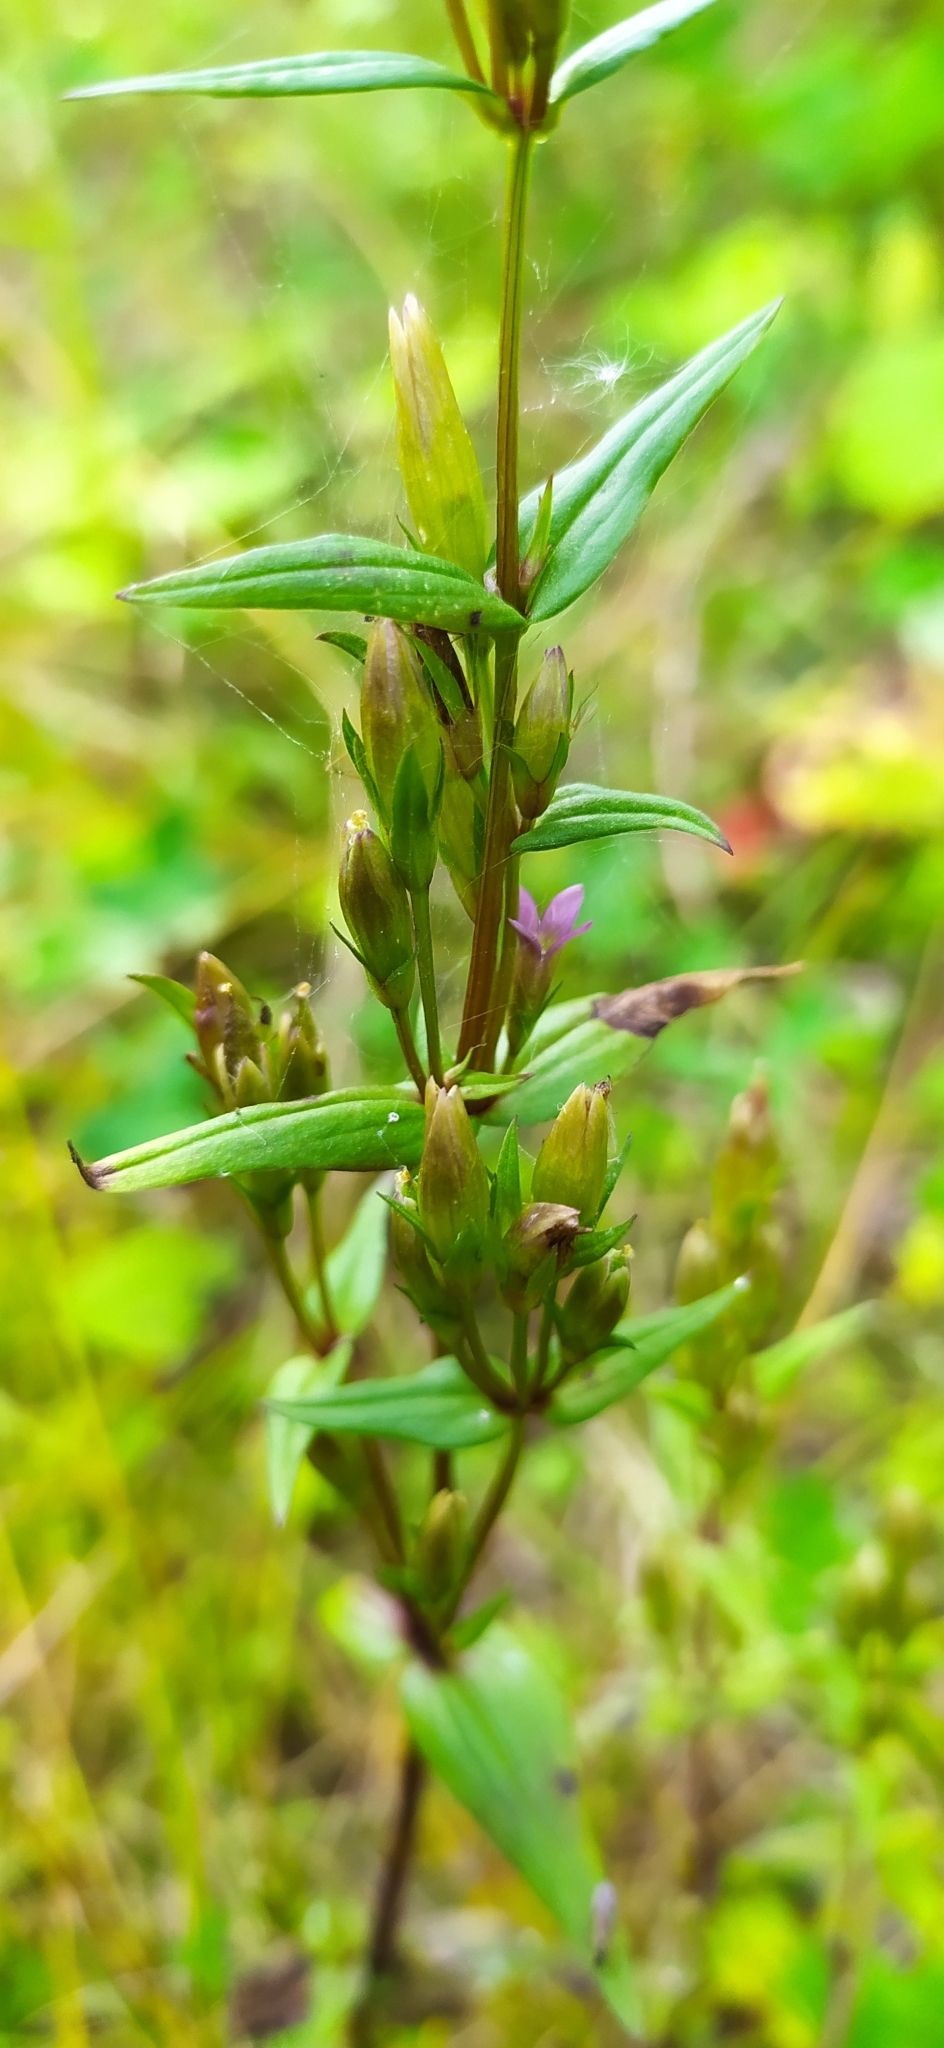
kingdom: Plantae
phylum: Tracheophyta
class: Magnoliopsida
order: Gentianales
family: Gentianaceae
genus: Gentianella
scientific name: Gentianella amarella
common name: Autumn gentian
